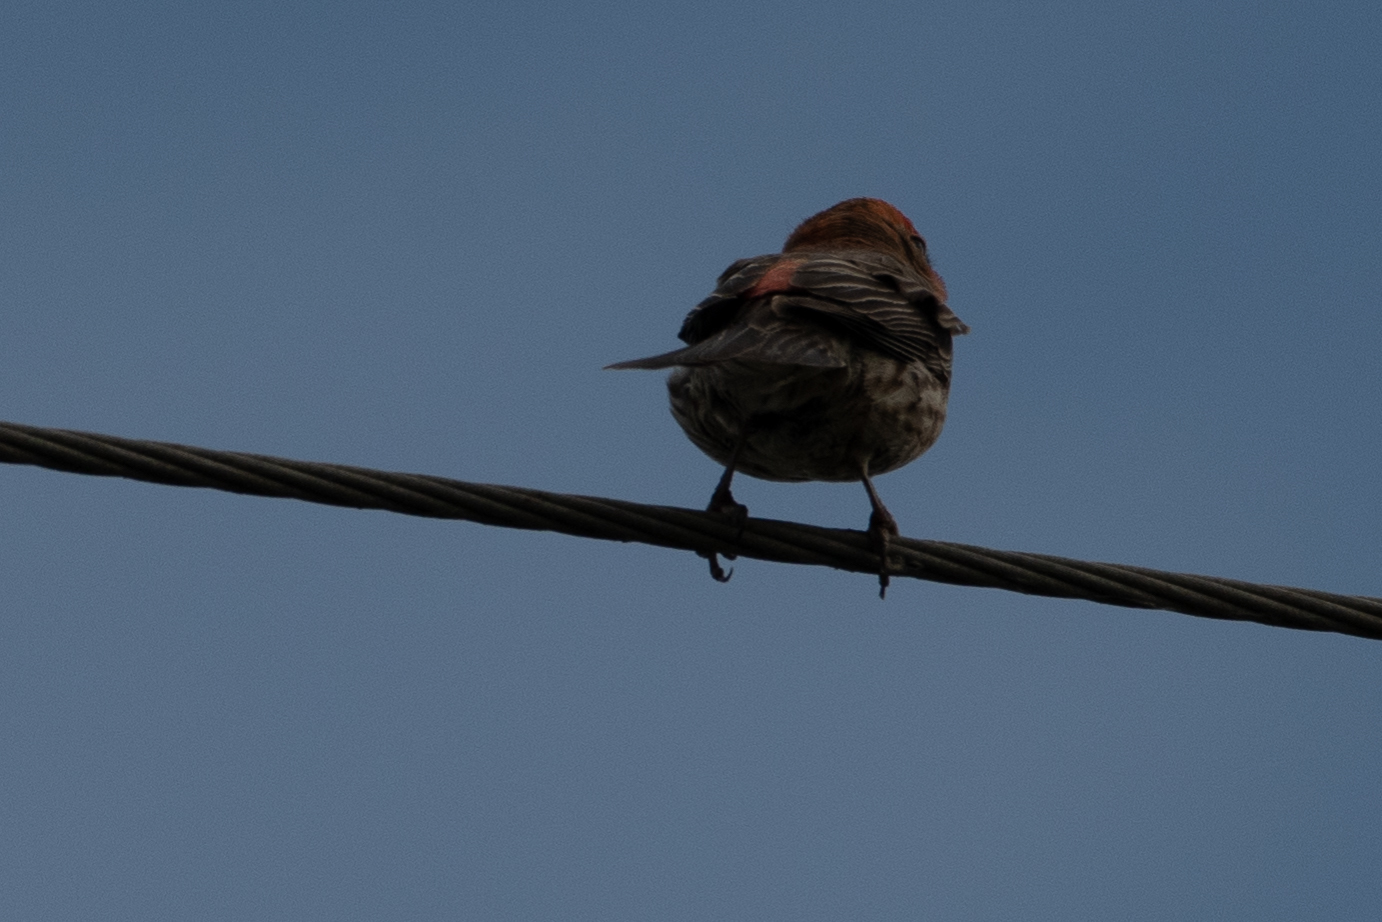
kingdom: Animalia
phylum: Chordata
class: Aves
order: Passeriformes
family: Fringillidae
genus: Haemorhous
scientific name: Haemorhous mexicanus
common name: House finch
